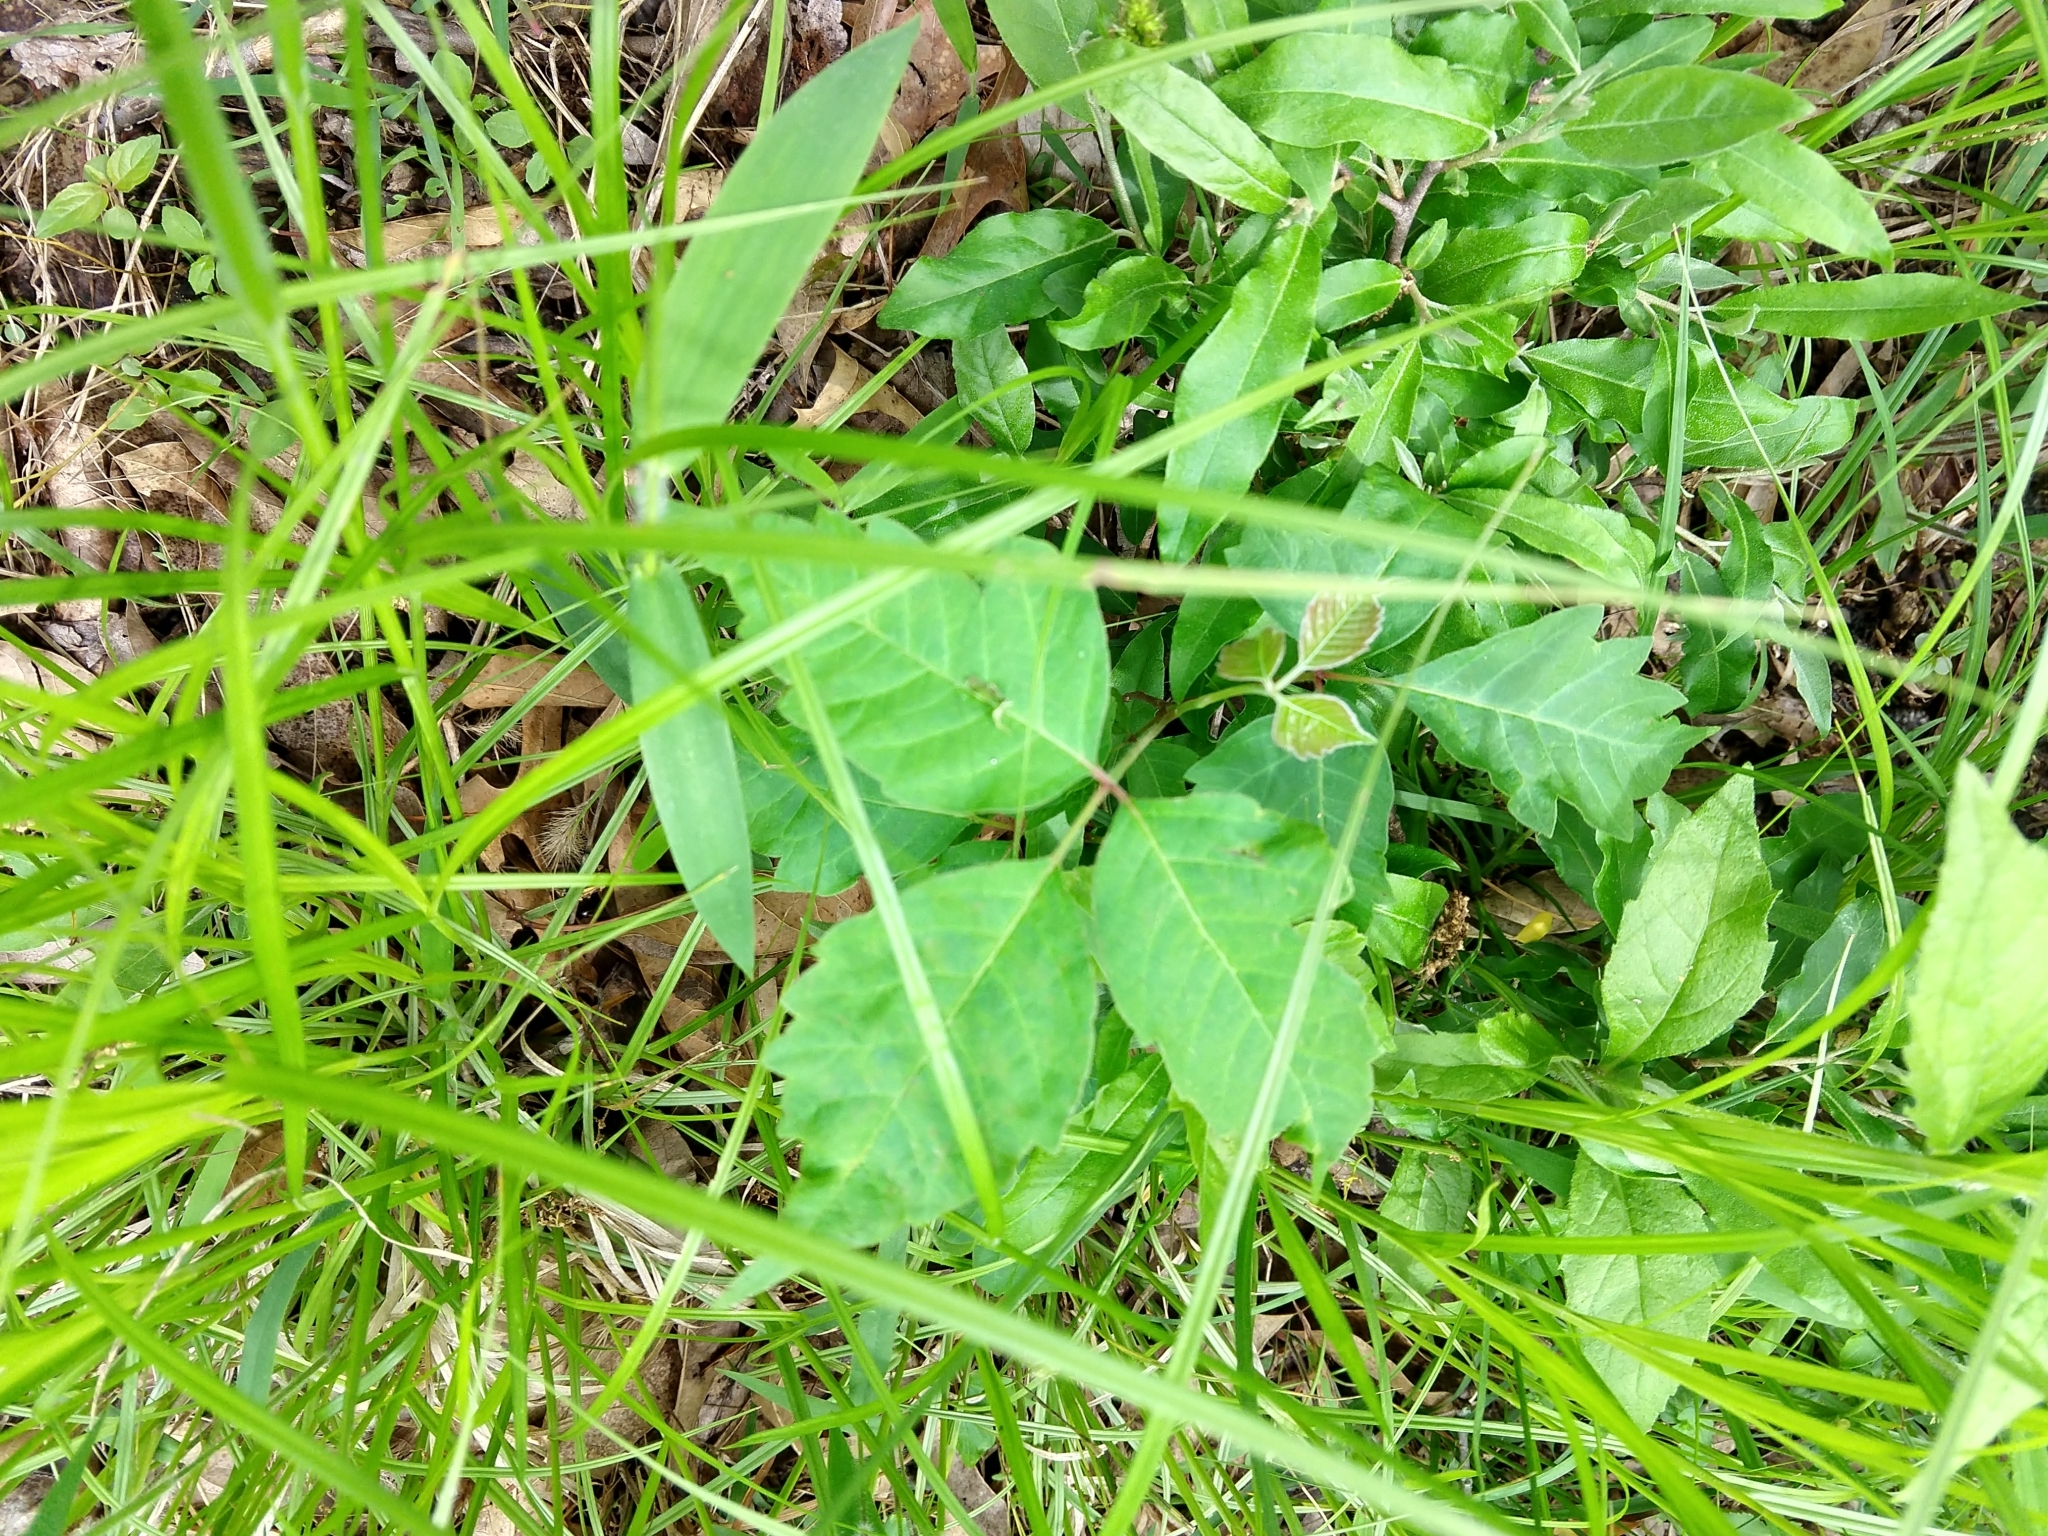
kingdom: Plantae
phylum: Tracheophyta
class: Magnoliopsida
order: Sapindales
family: Anacardiaceae
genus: Toxicodendron
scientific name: Toxicodendron radicans
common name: Poison ivy
